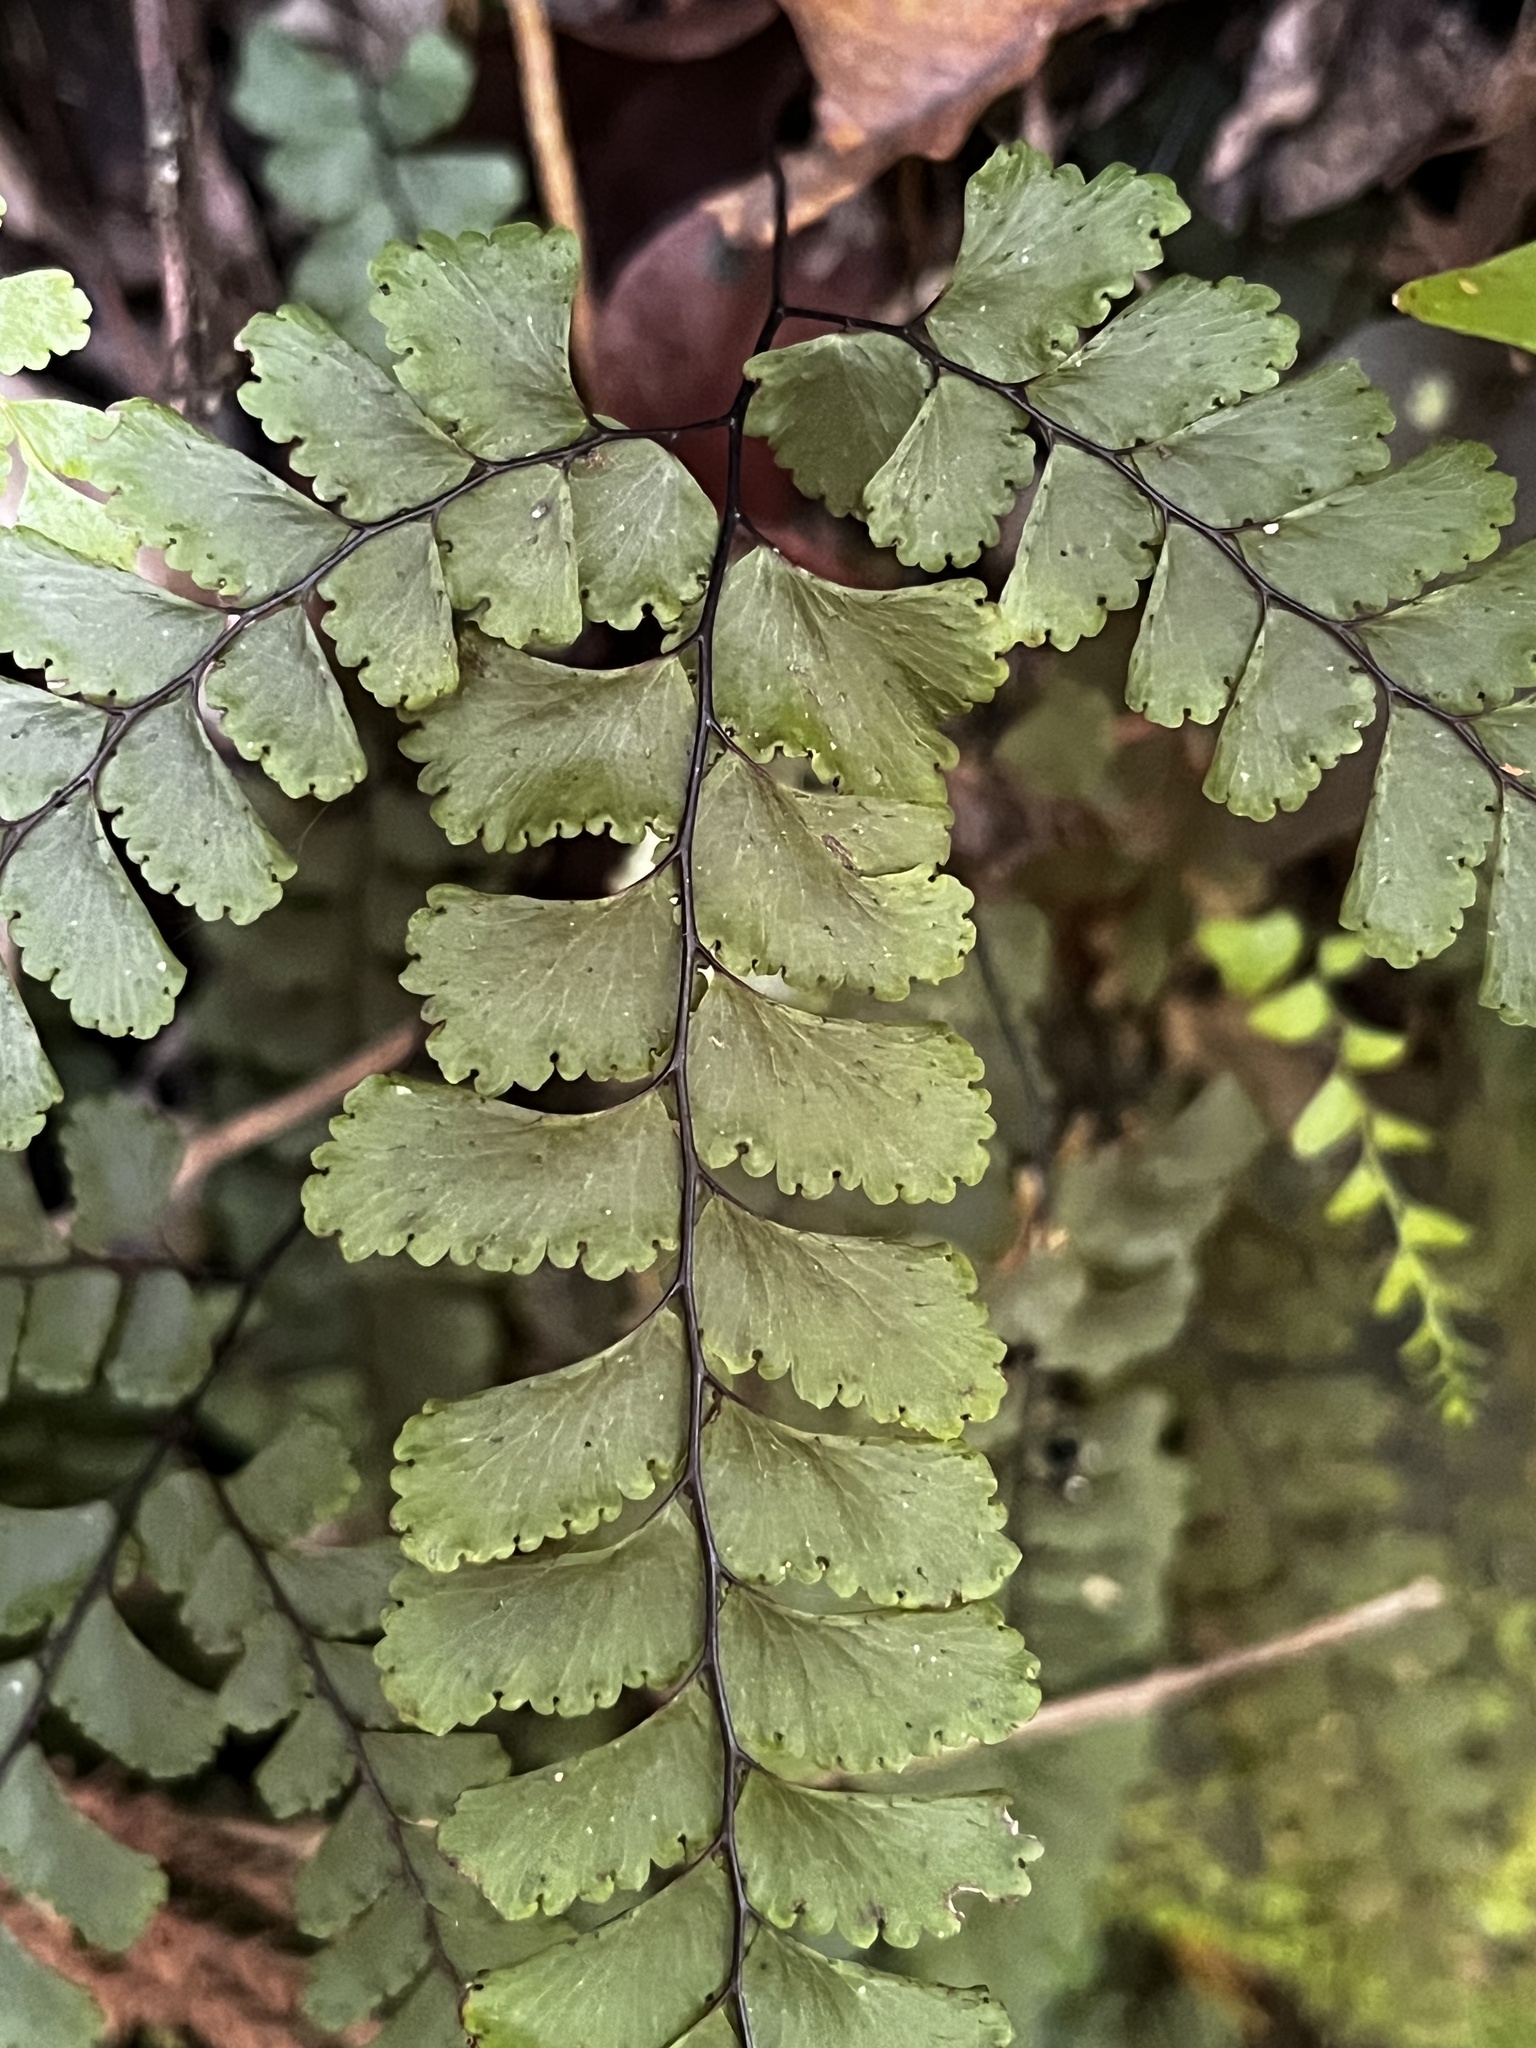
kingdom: Plantae
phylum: Tracheophyta
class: Polypodiopsida
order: Polypodiales
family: Pteridaceae
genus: Adiantum
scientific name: Adiantum diaphanum
